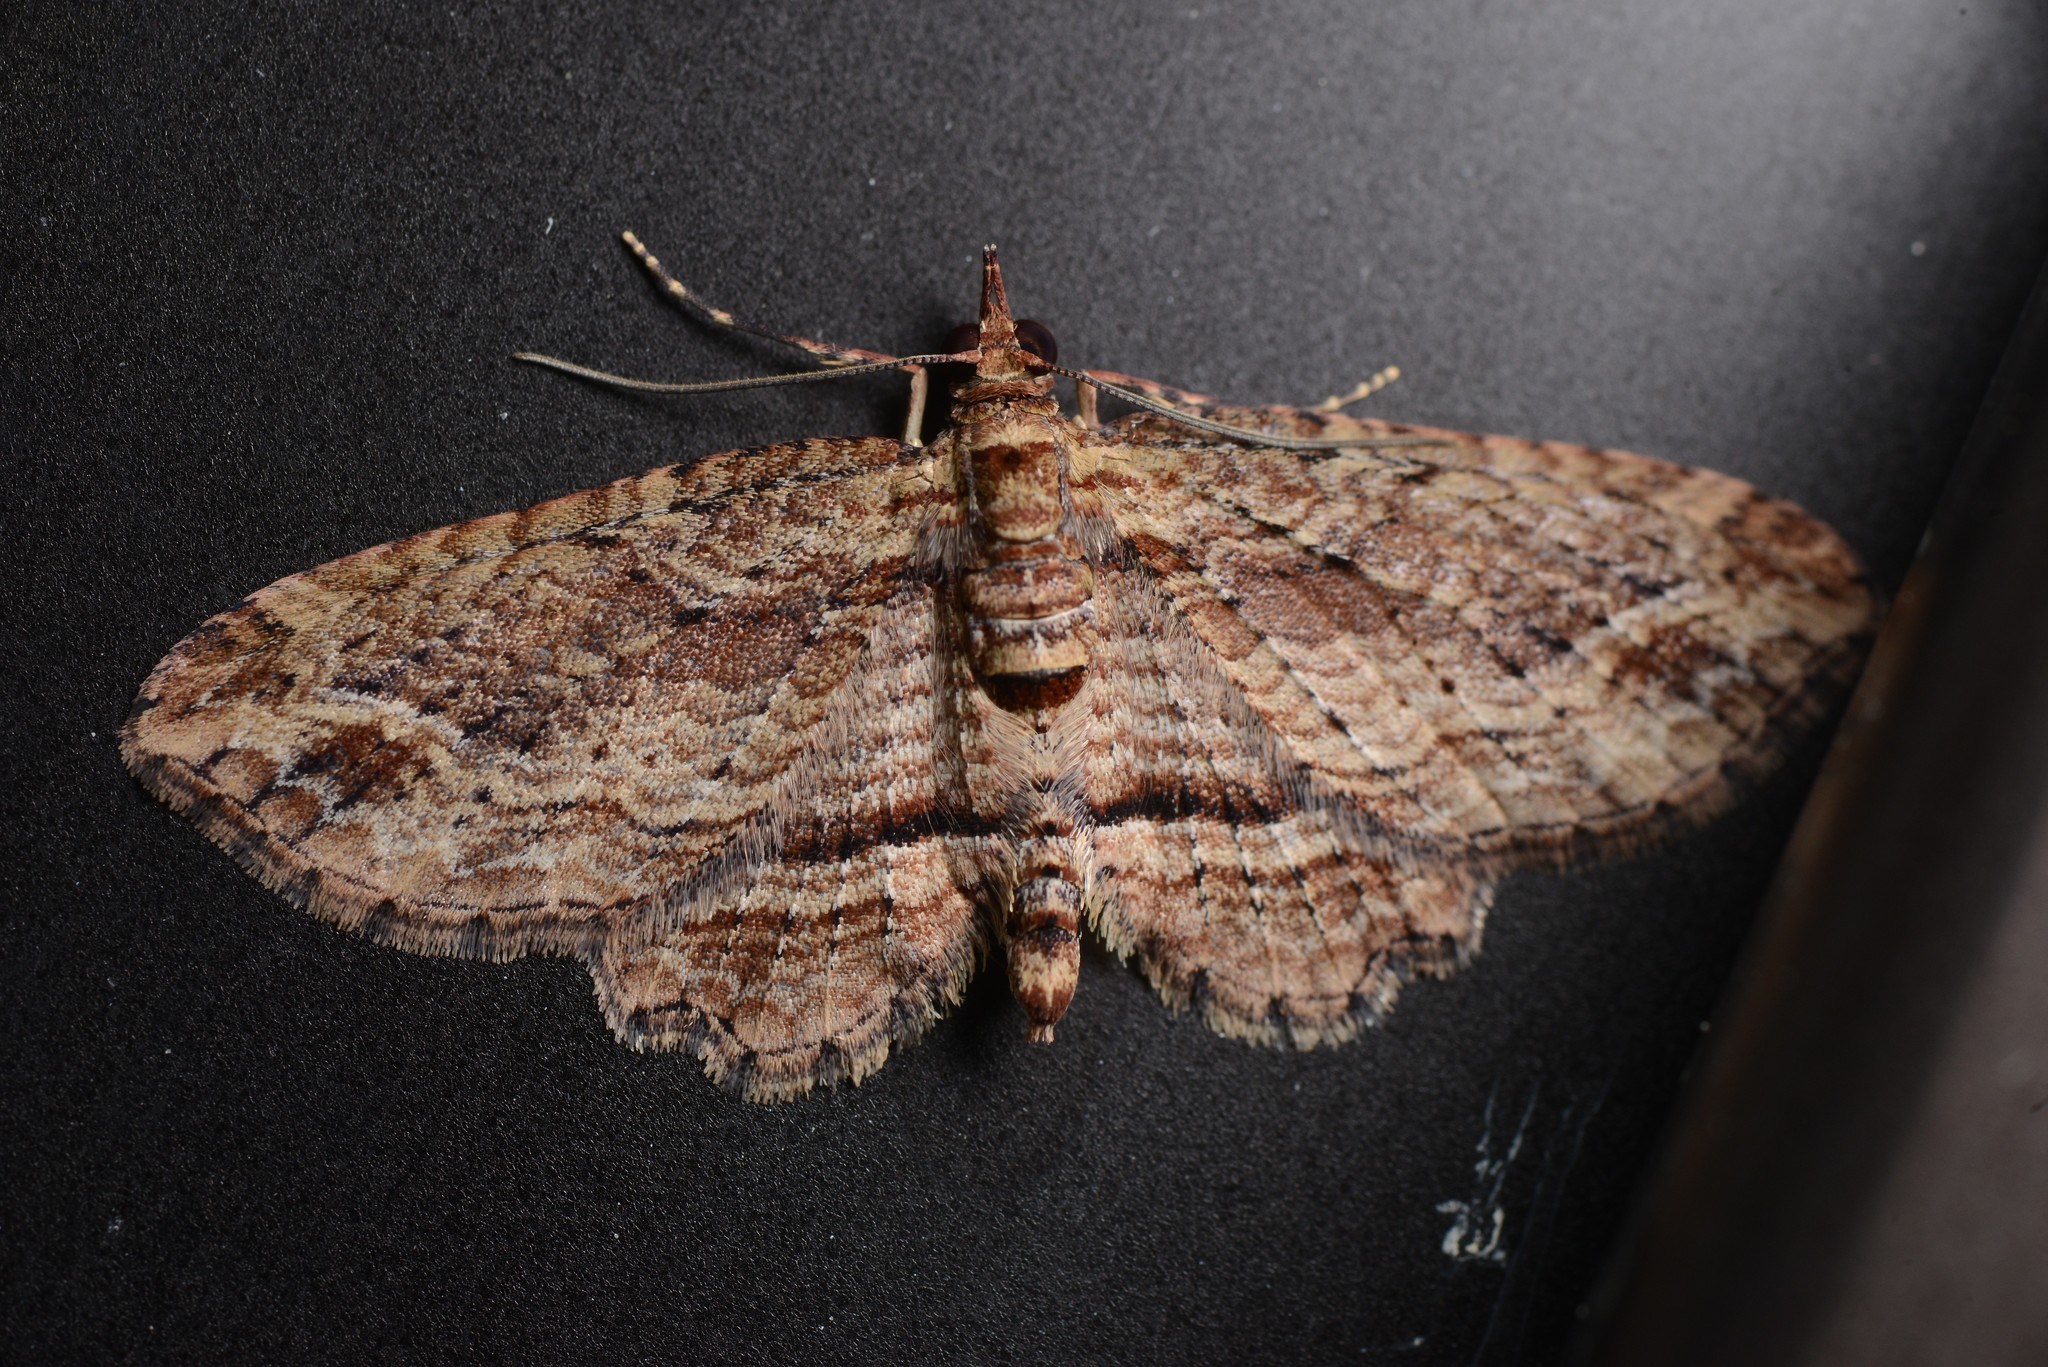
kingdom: Animalia
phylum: Arthropoda
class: Insecta
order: Lepidoptera
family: Geometridae
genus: Chloroclystis
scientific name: Chloroclystis filata
